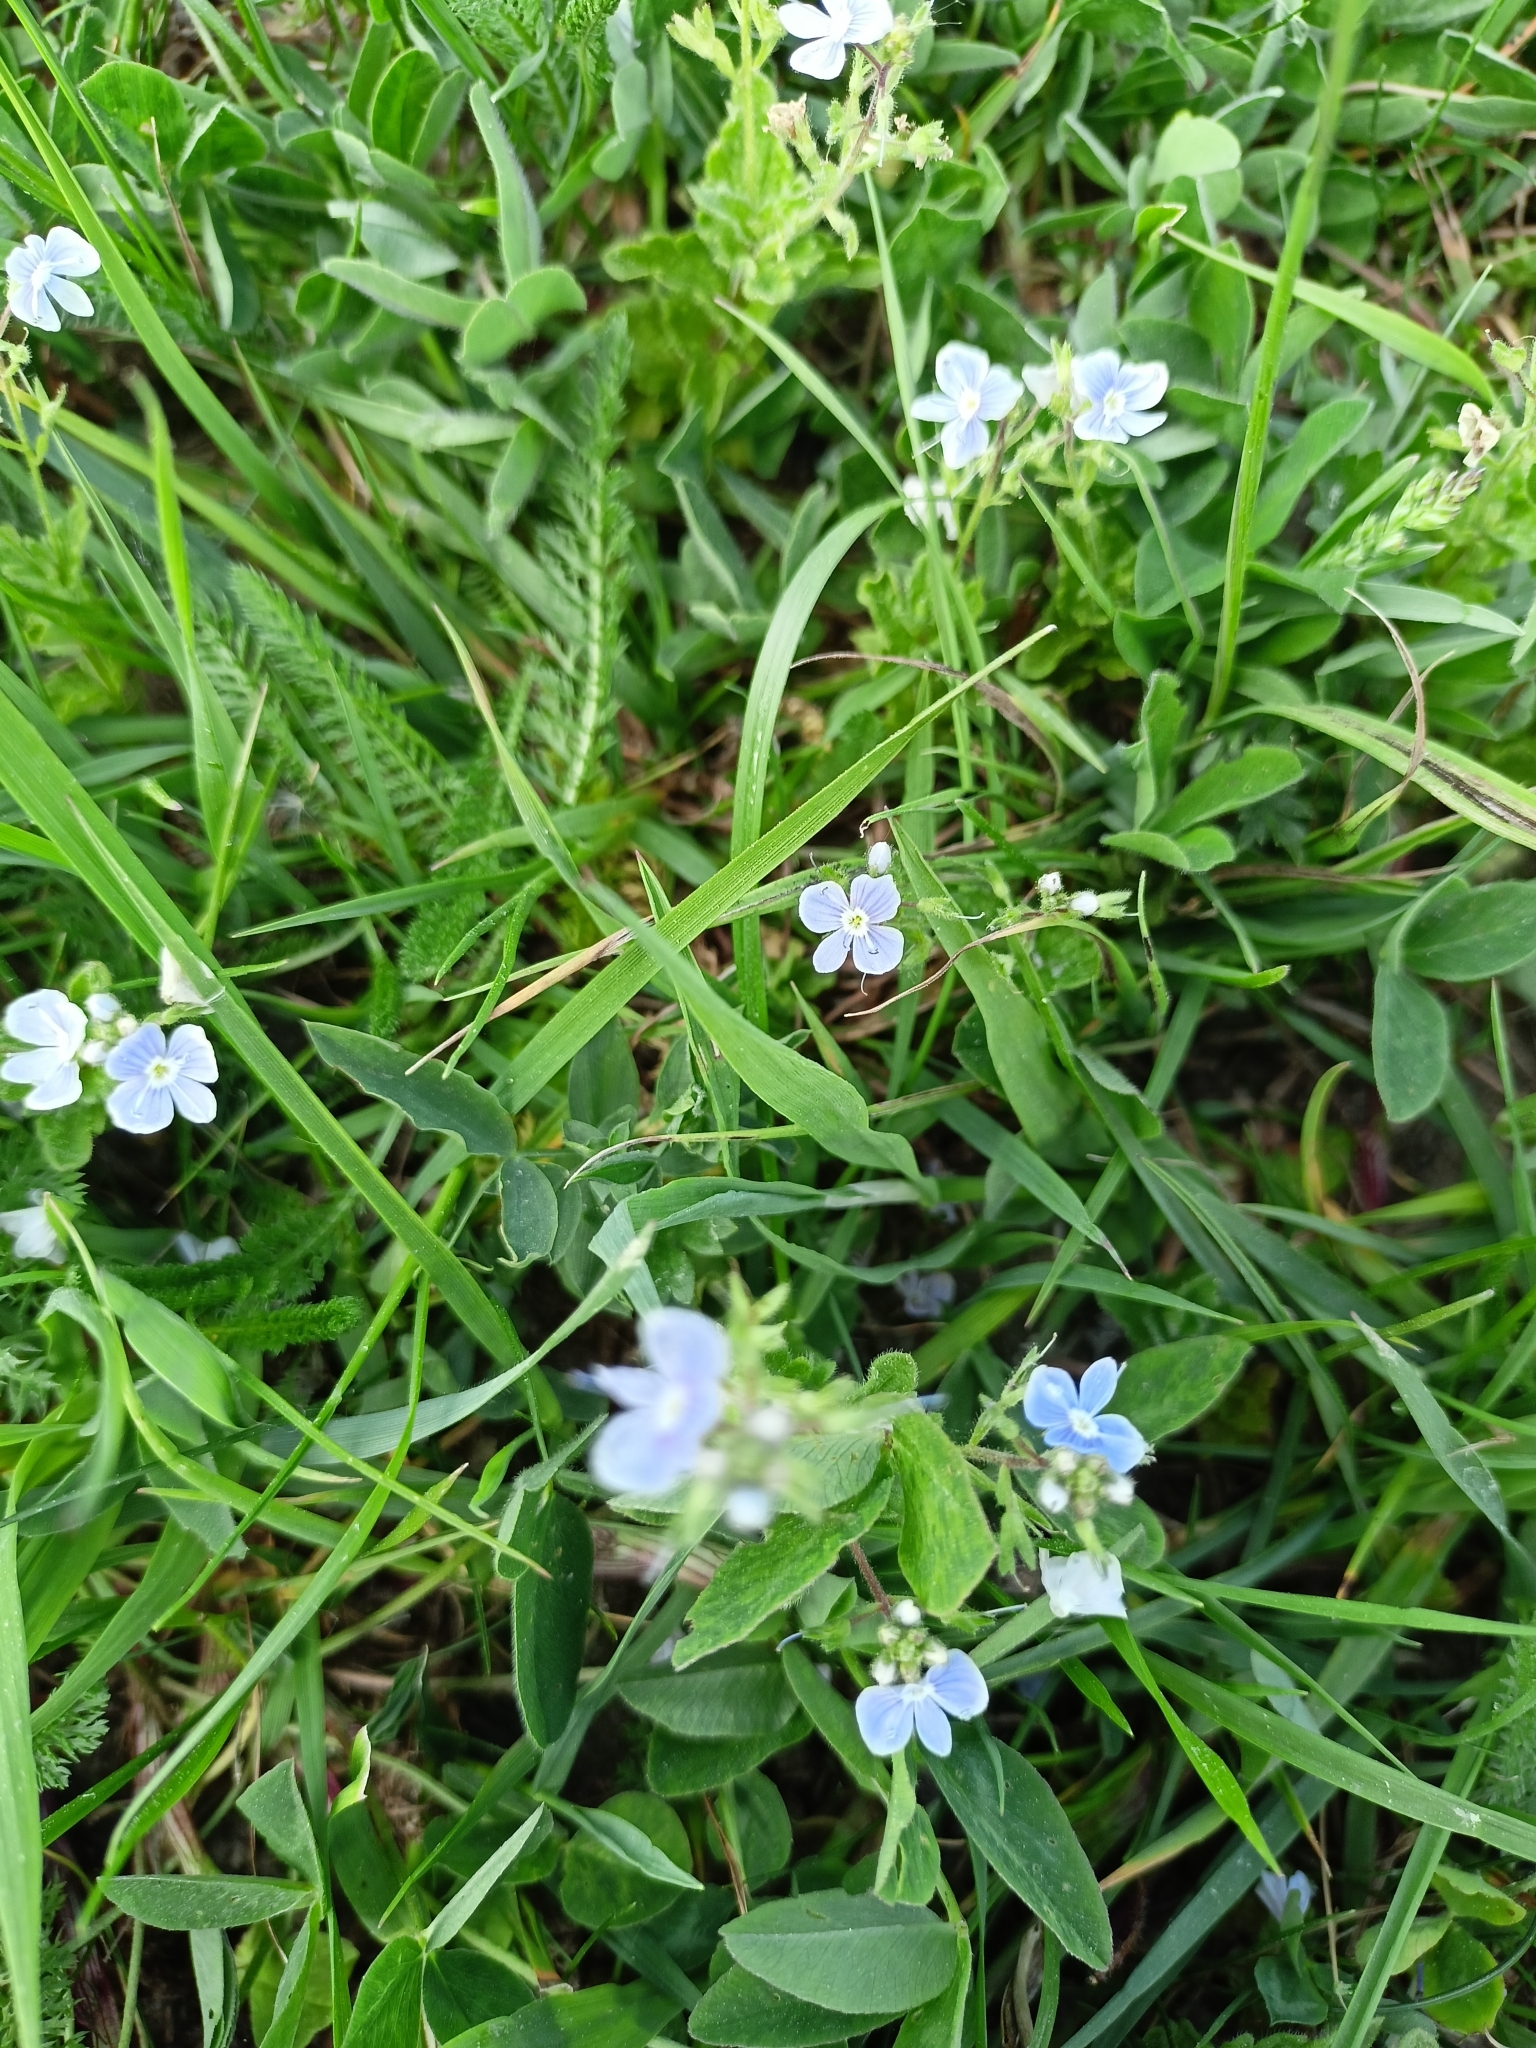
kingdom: Plantae
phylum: Tracheophyta
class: Magnoliopsida
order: Lamiales
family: Plantaginaceae
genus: Veronica
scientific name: Veronica chamaedrys
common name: Germander speedwell
